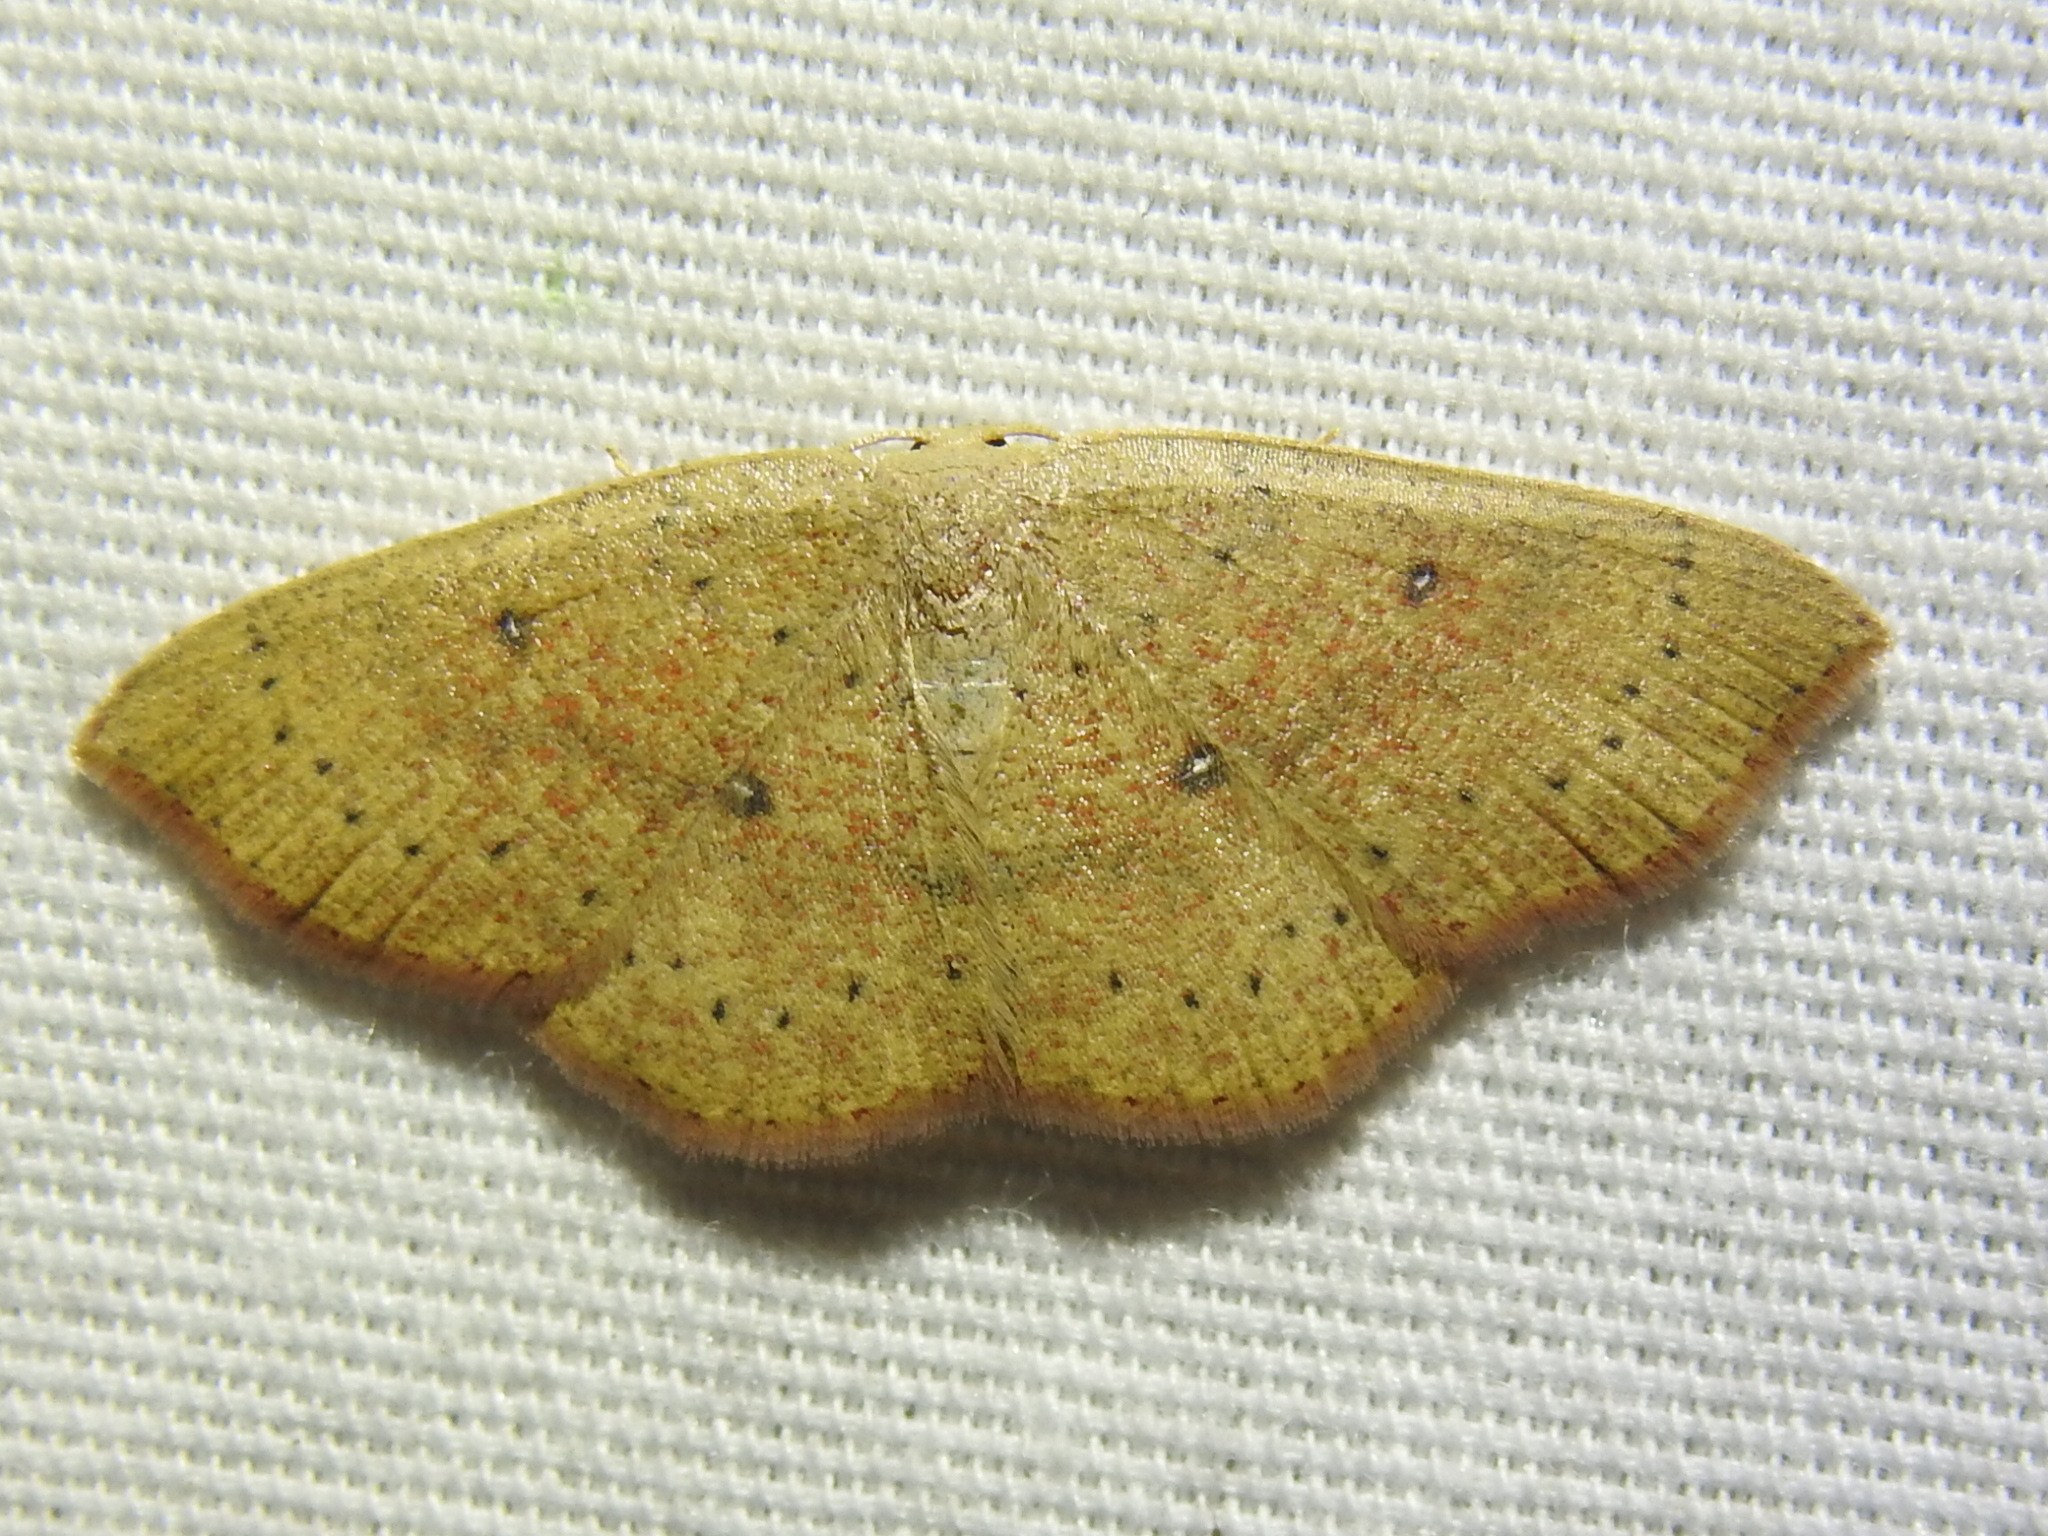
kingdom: Animalia
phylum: Arthropoda
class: Insecta
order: Lepidoptera
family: Geometridae
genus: Cyclophora
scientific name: Cyclophora packardi
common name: Packard's wave
